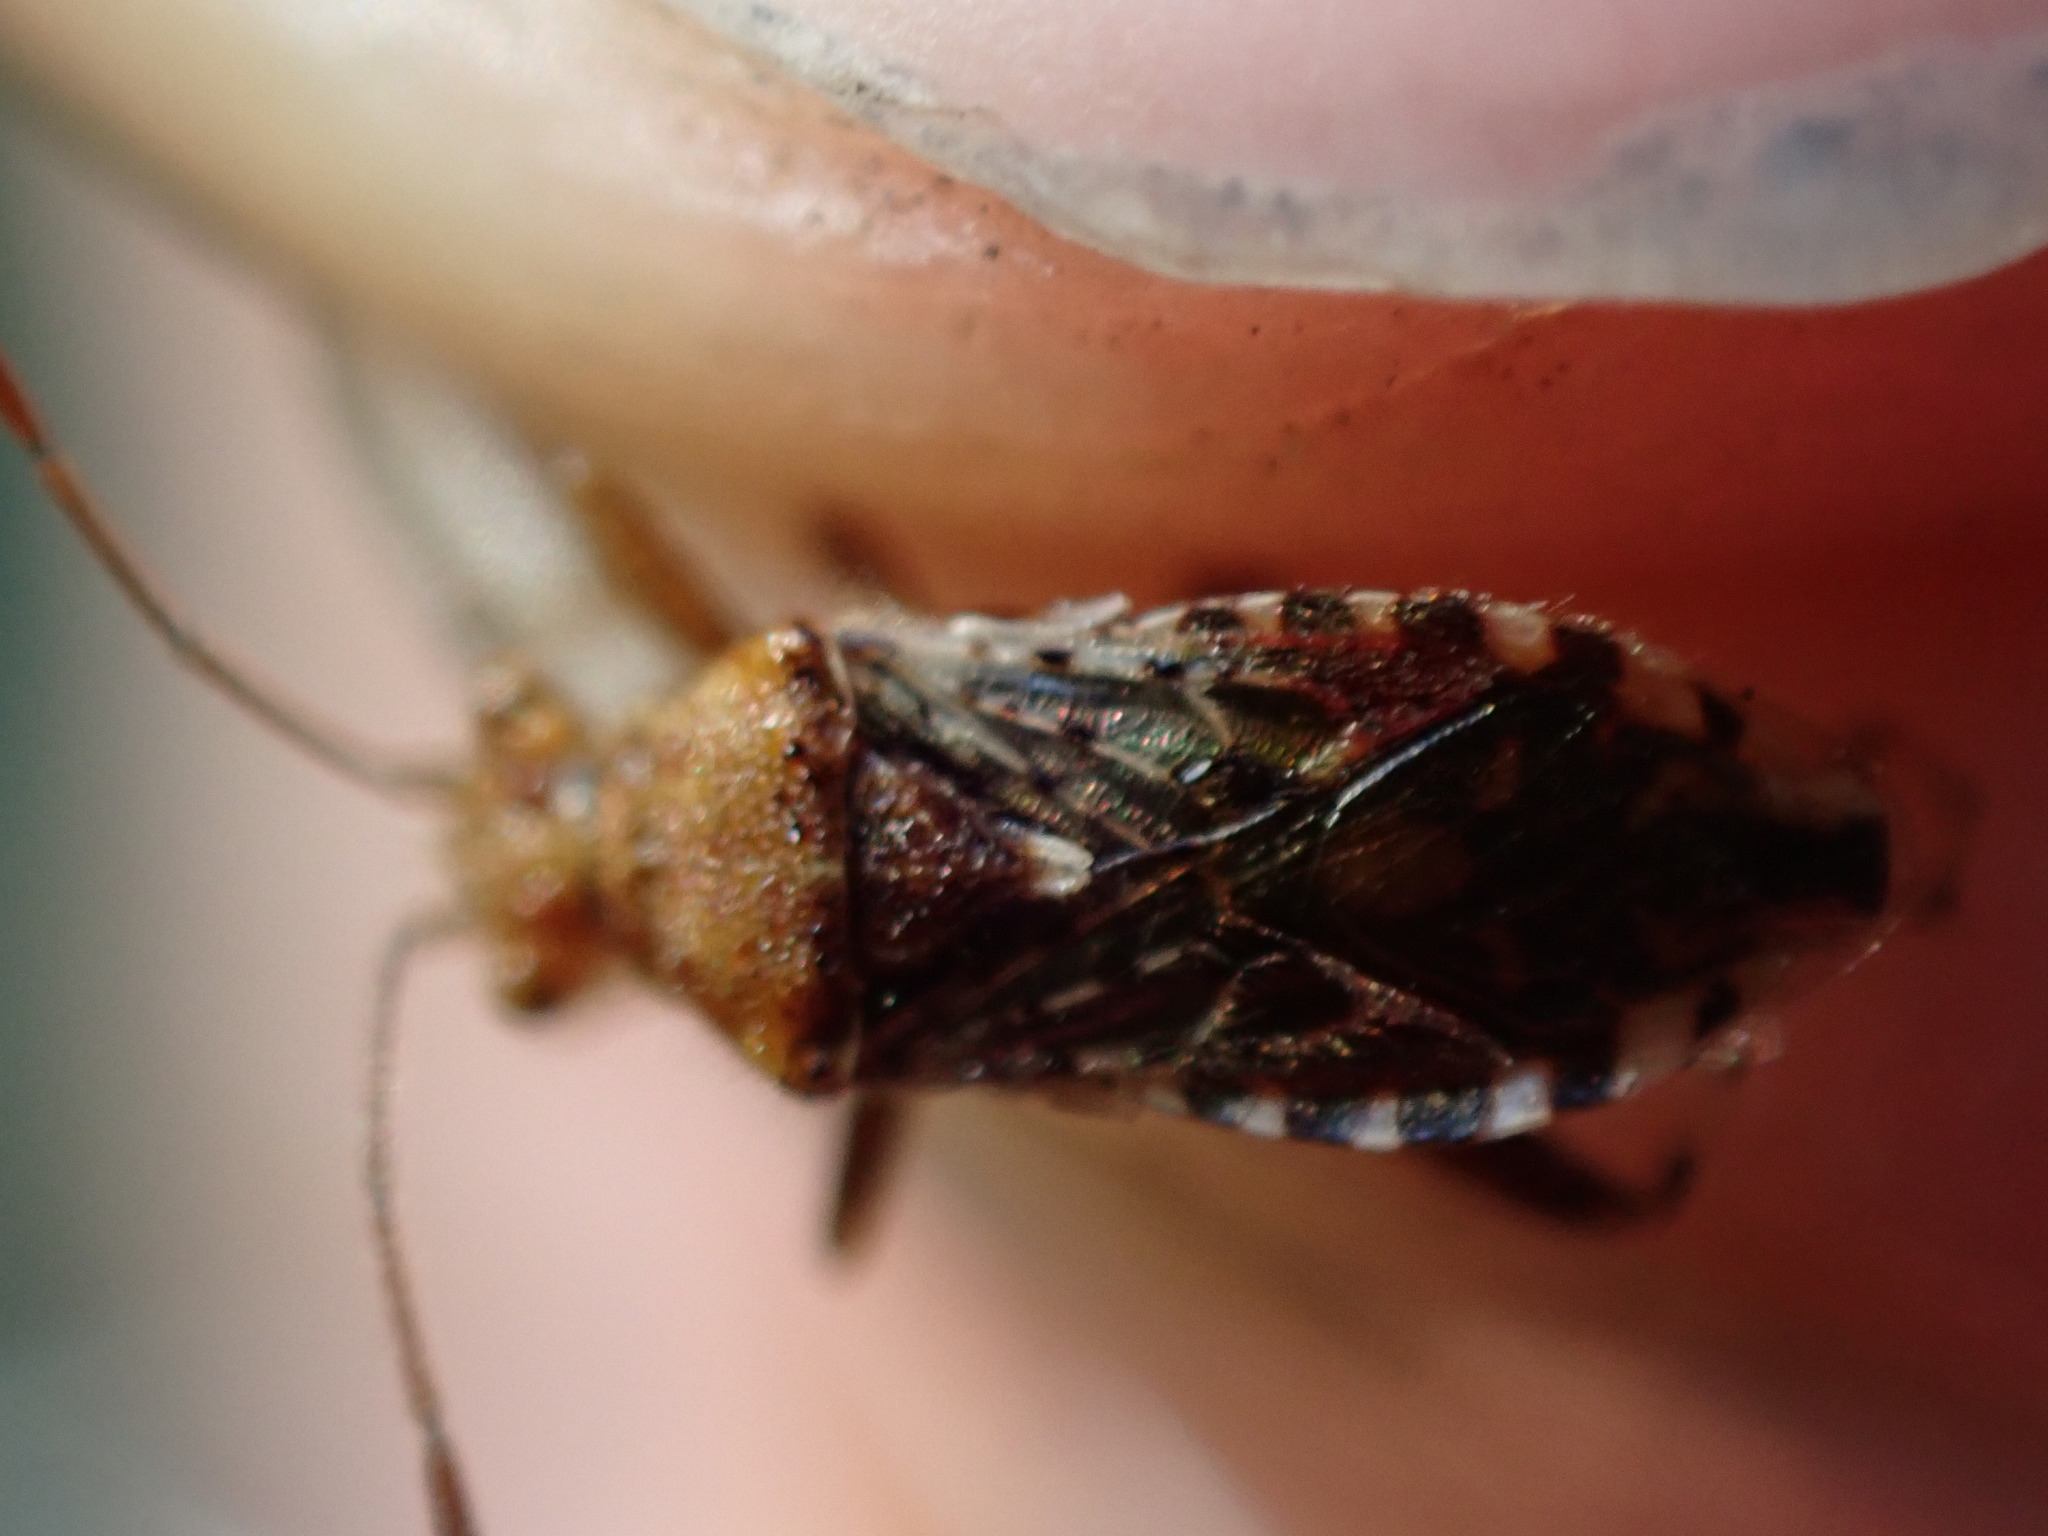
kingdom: Animalia
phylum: Arthropoda
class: Insecta
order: Hemiptera
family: Rhopalidae
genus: Rhopalus
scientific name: Rhopalus subrufus
